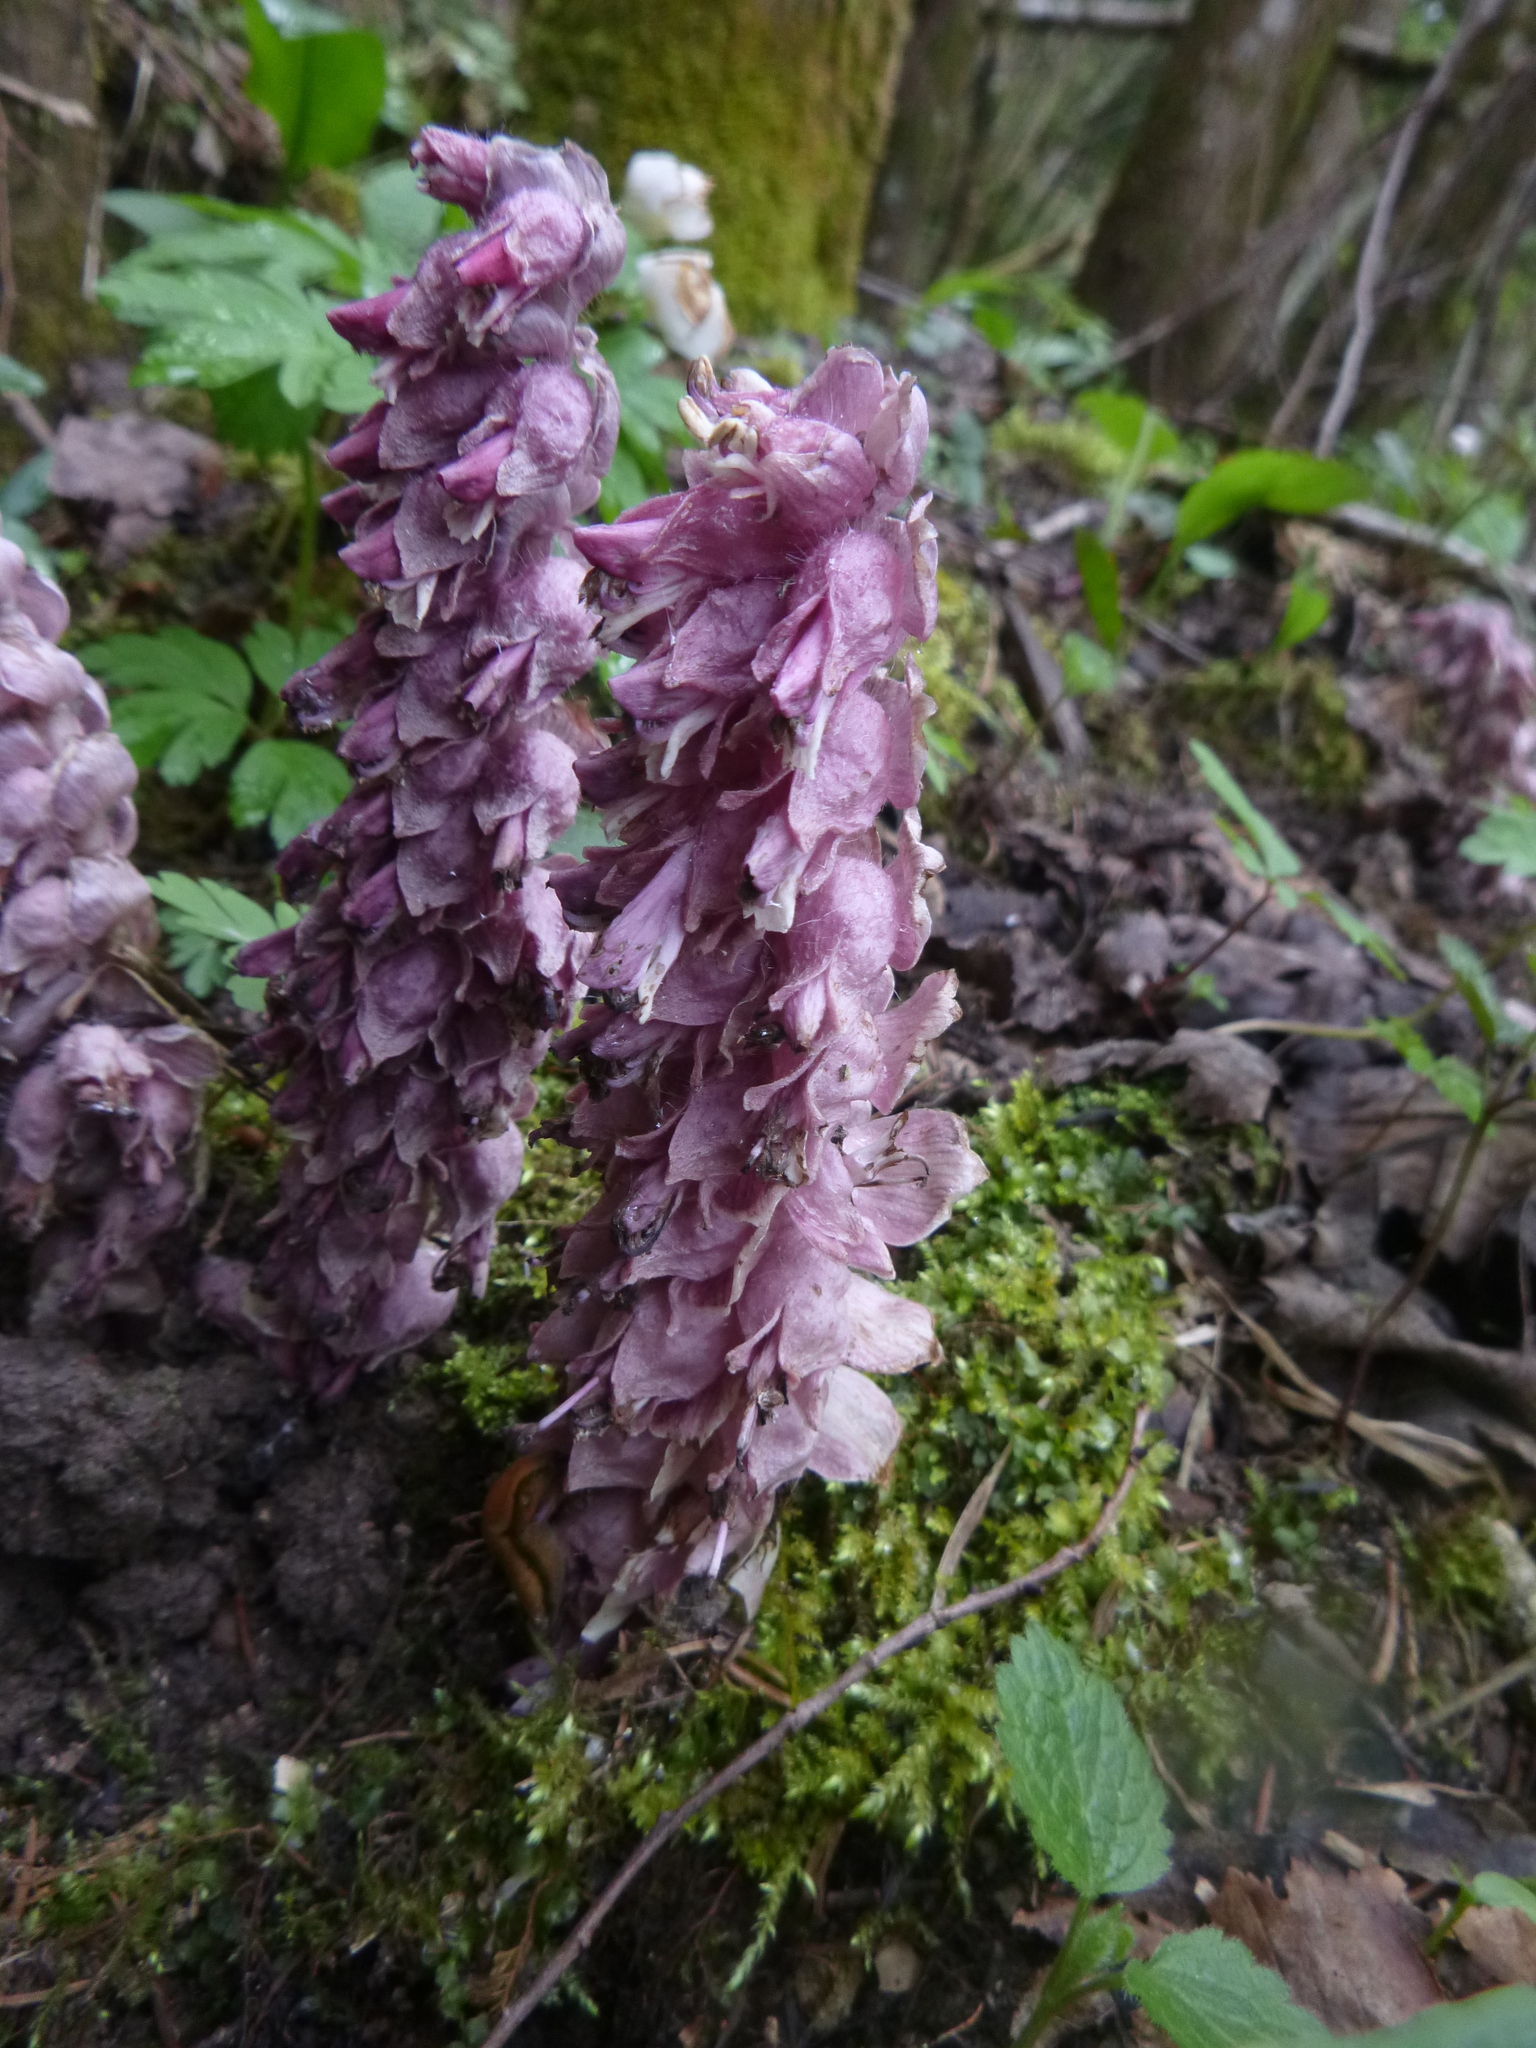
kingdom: Plantae
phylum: Tracheophyta
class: Magnoliopsida
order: Lamiales
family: Orobanchaceae
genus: Lathraea
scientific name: Lathraea squamaria
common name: Toothwort
